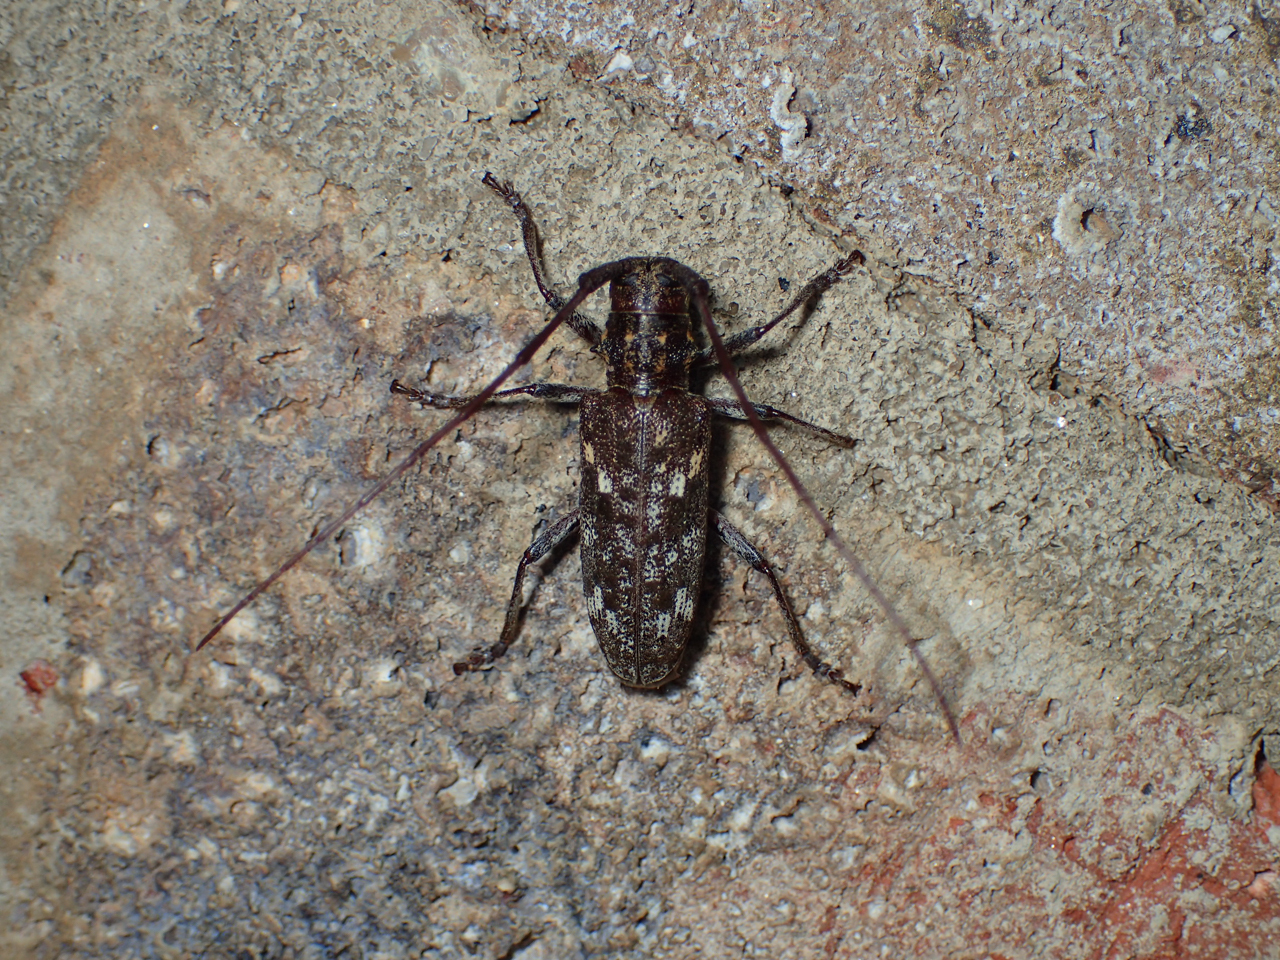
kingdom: Animalia
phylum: Arthropoda
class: Insecta
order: Coleoptera
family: Cerambycidae
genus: Monochamus
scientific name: Monochamus carolinensis
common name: Carolina pine sawyer
